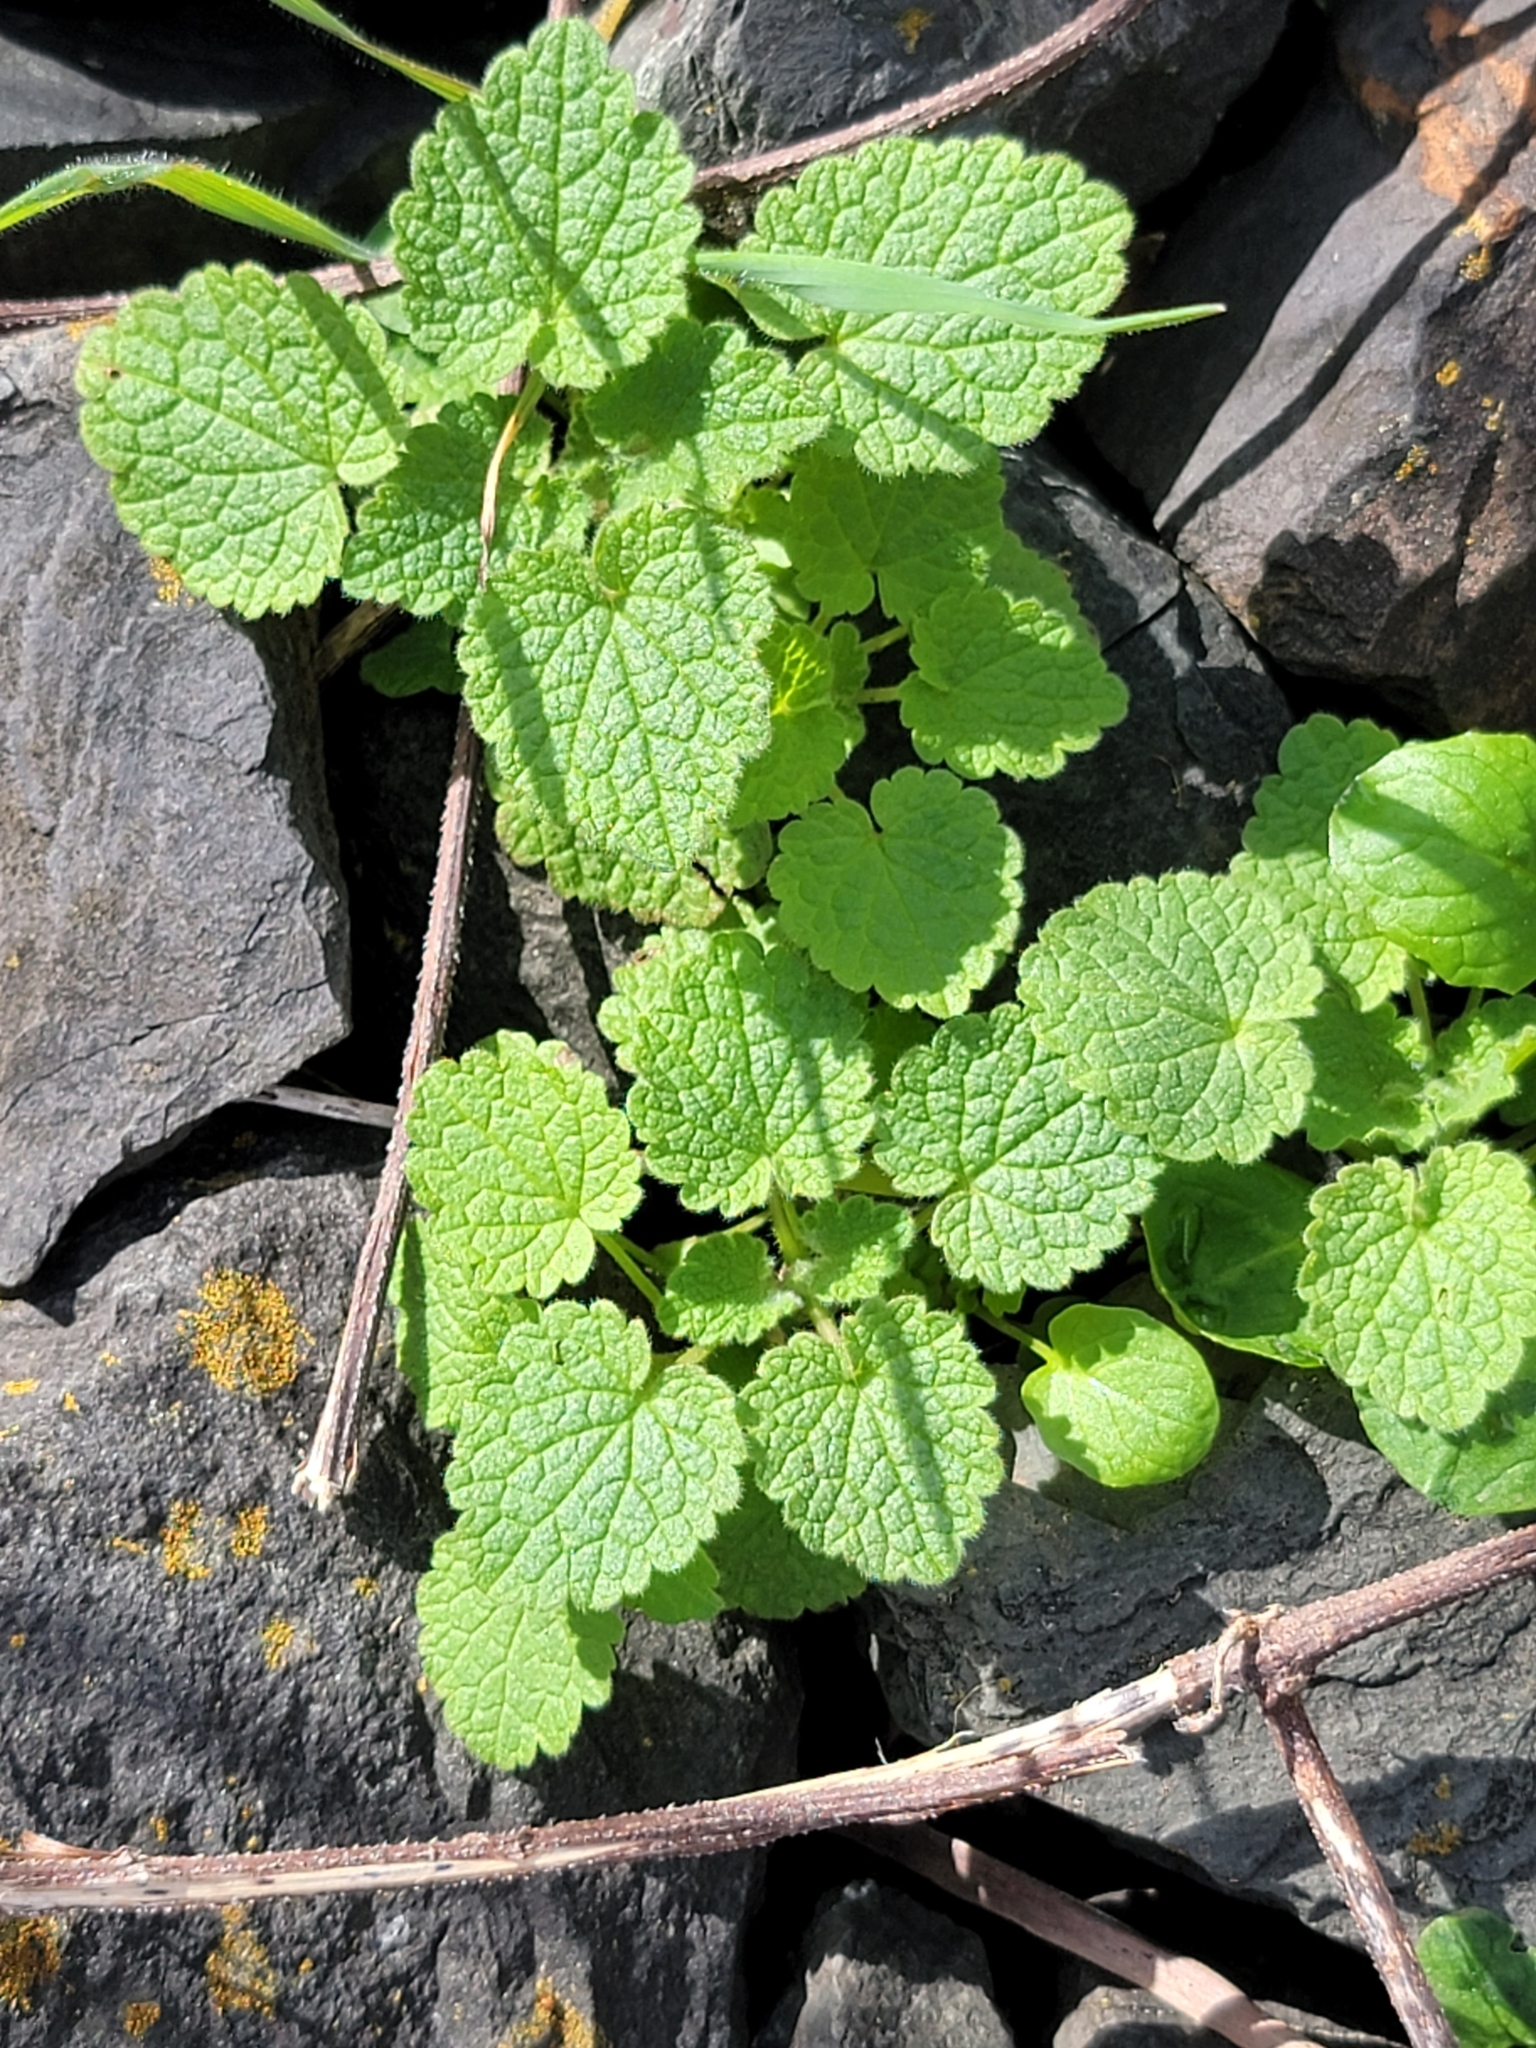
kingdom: Plantae
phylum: Tracheophyta
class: Magnoliopsida
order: Lamiales
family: Lamiaceae
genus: Lamium
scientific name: Lamium purpureum
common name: Red dead-nettle
